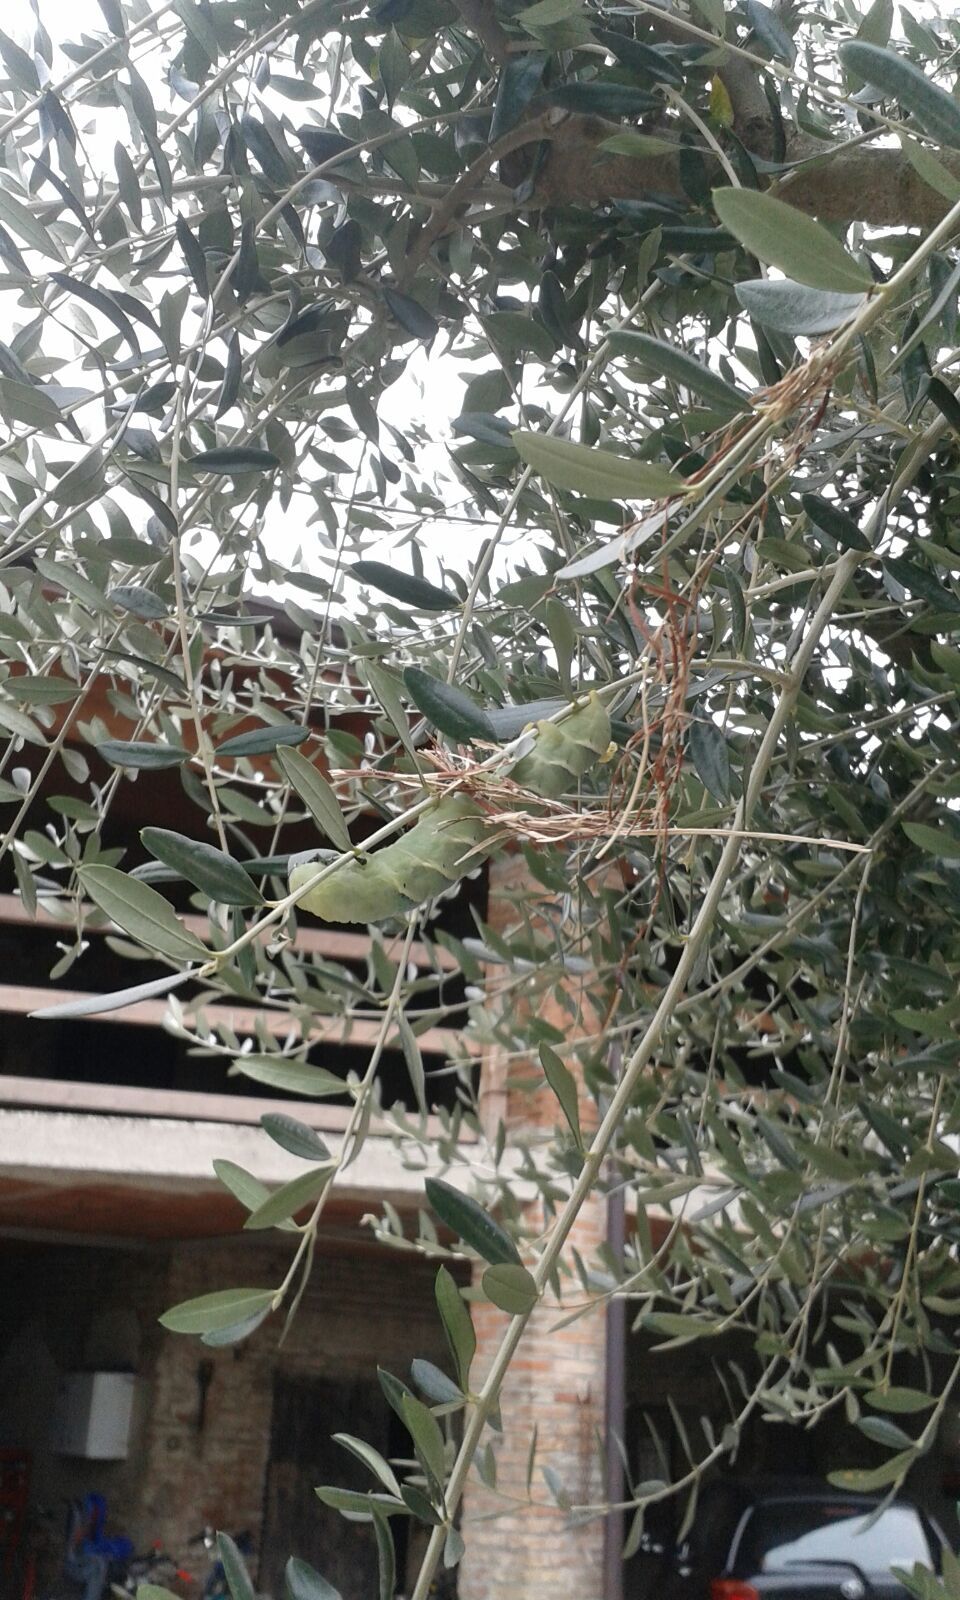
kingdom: Animalia
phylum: Arthropoda
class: Insecta
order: Lepidoptera
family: Sphingidae
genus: Acherontia
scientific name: Acherontia atropos
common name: Death's-head hawk moth
